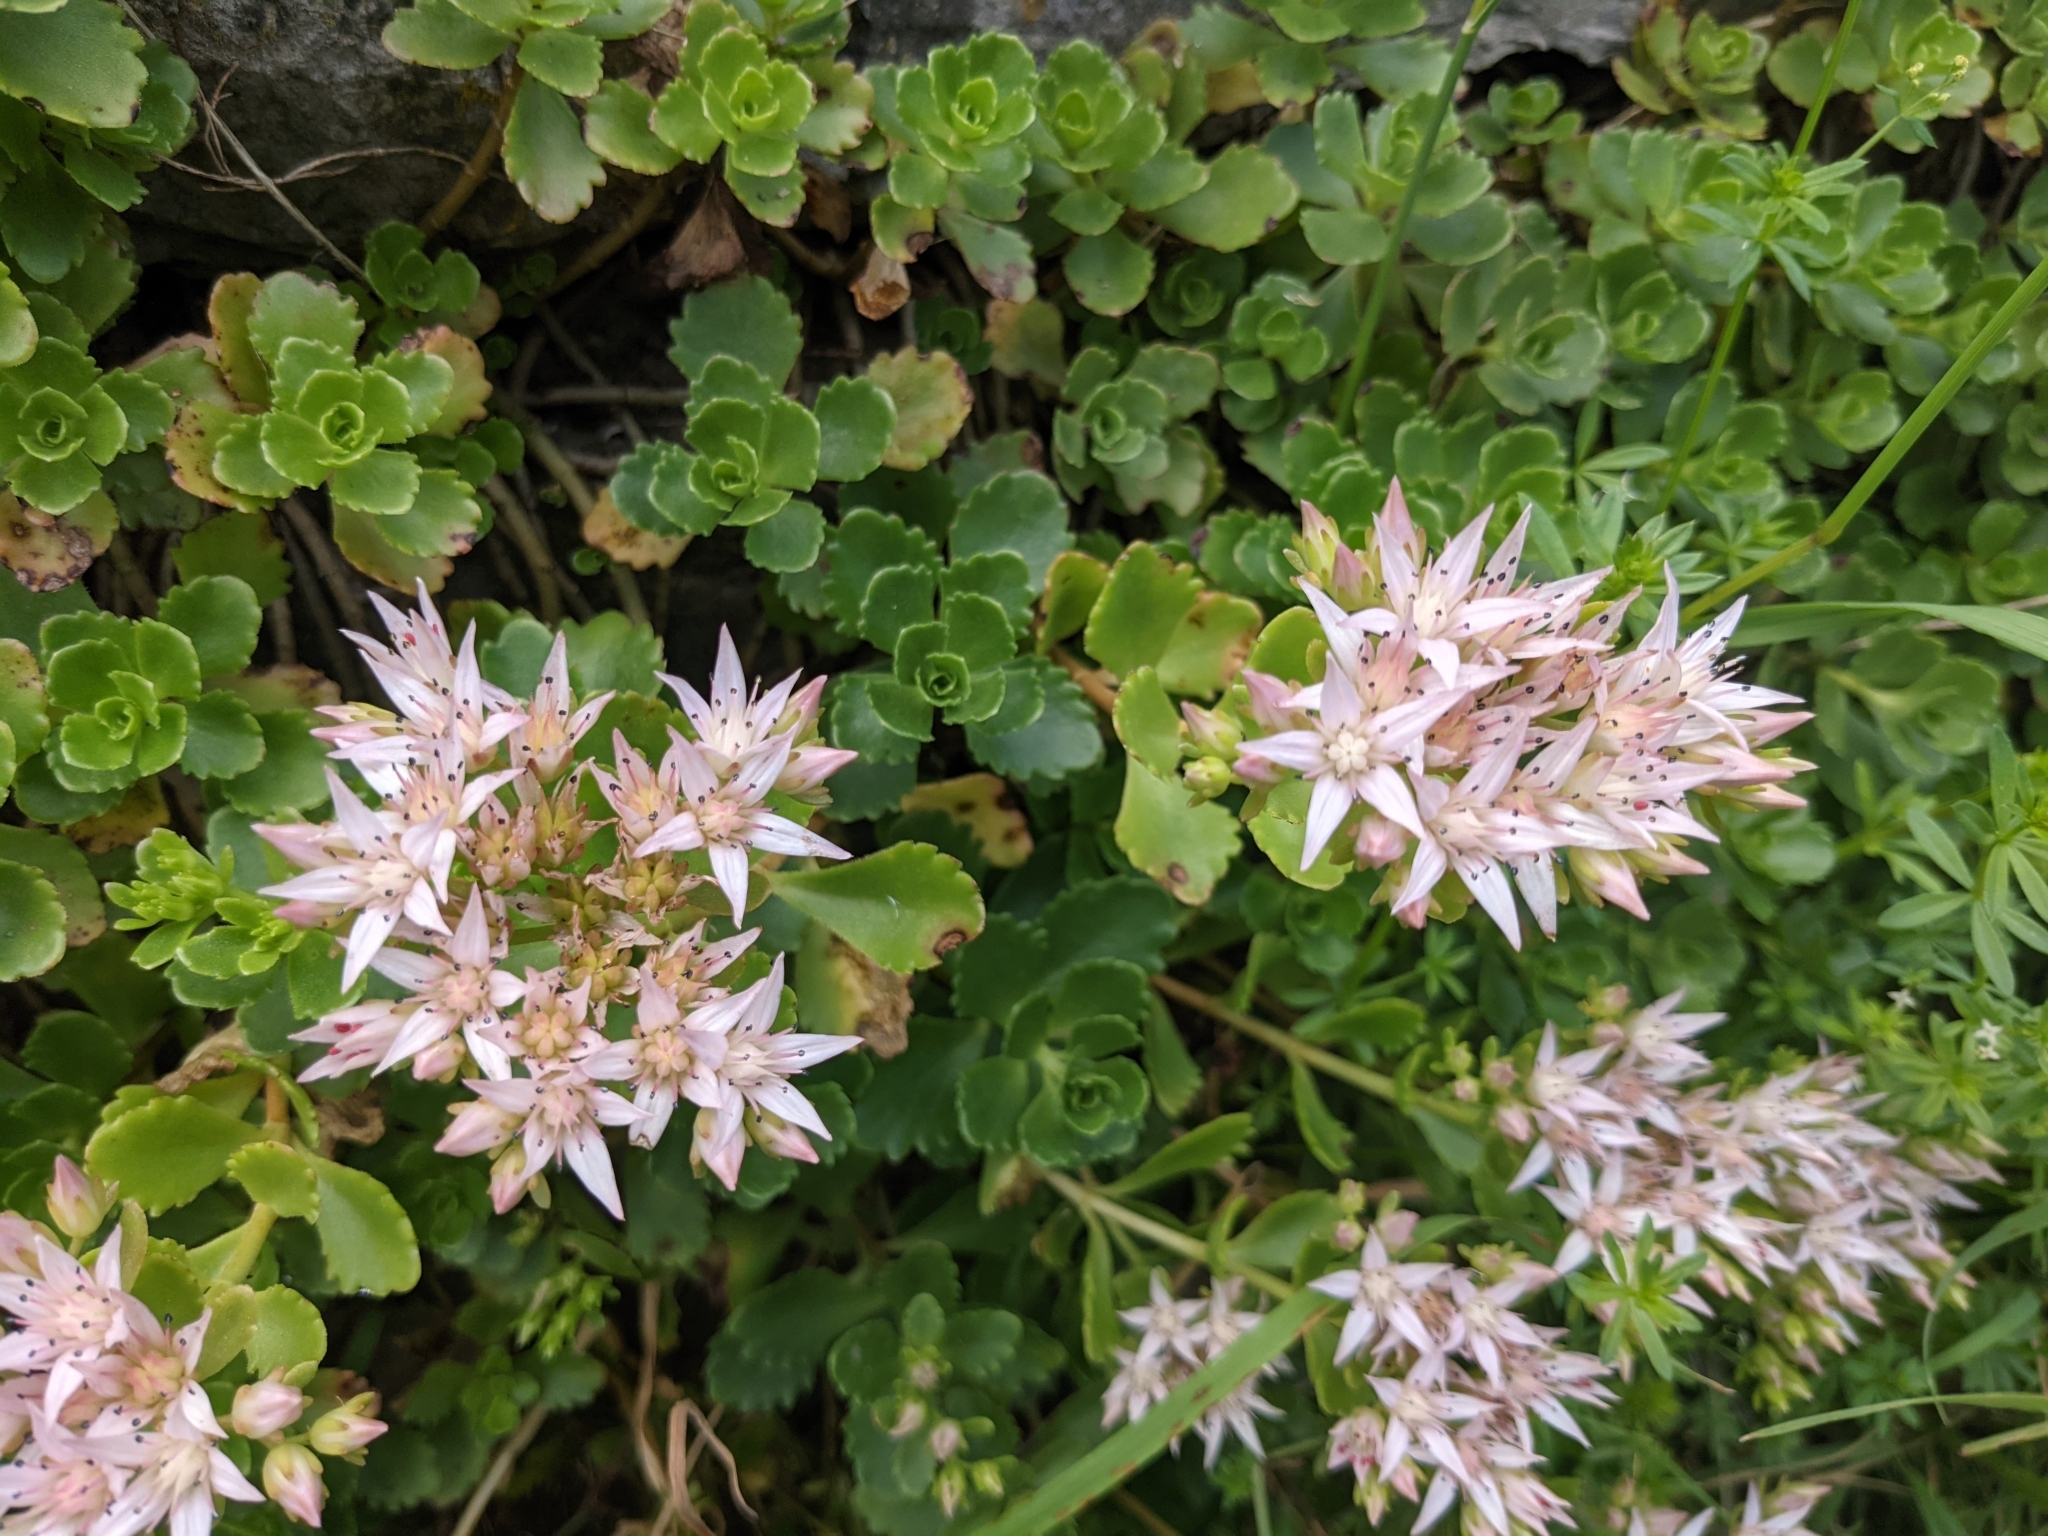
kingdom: Plantae
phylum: Tracheophyta
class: Magnoliopsida
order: Saxifragales
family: Crassulaceae
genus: Phedimus
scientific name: Phedimus spurius
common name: Caucasian stonecrop
